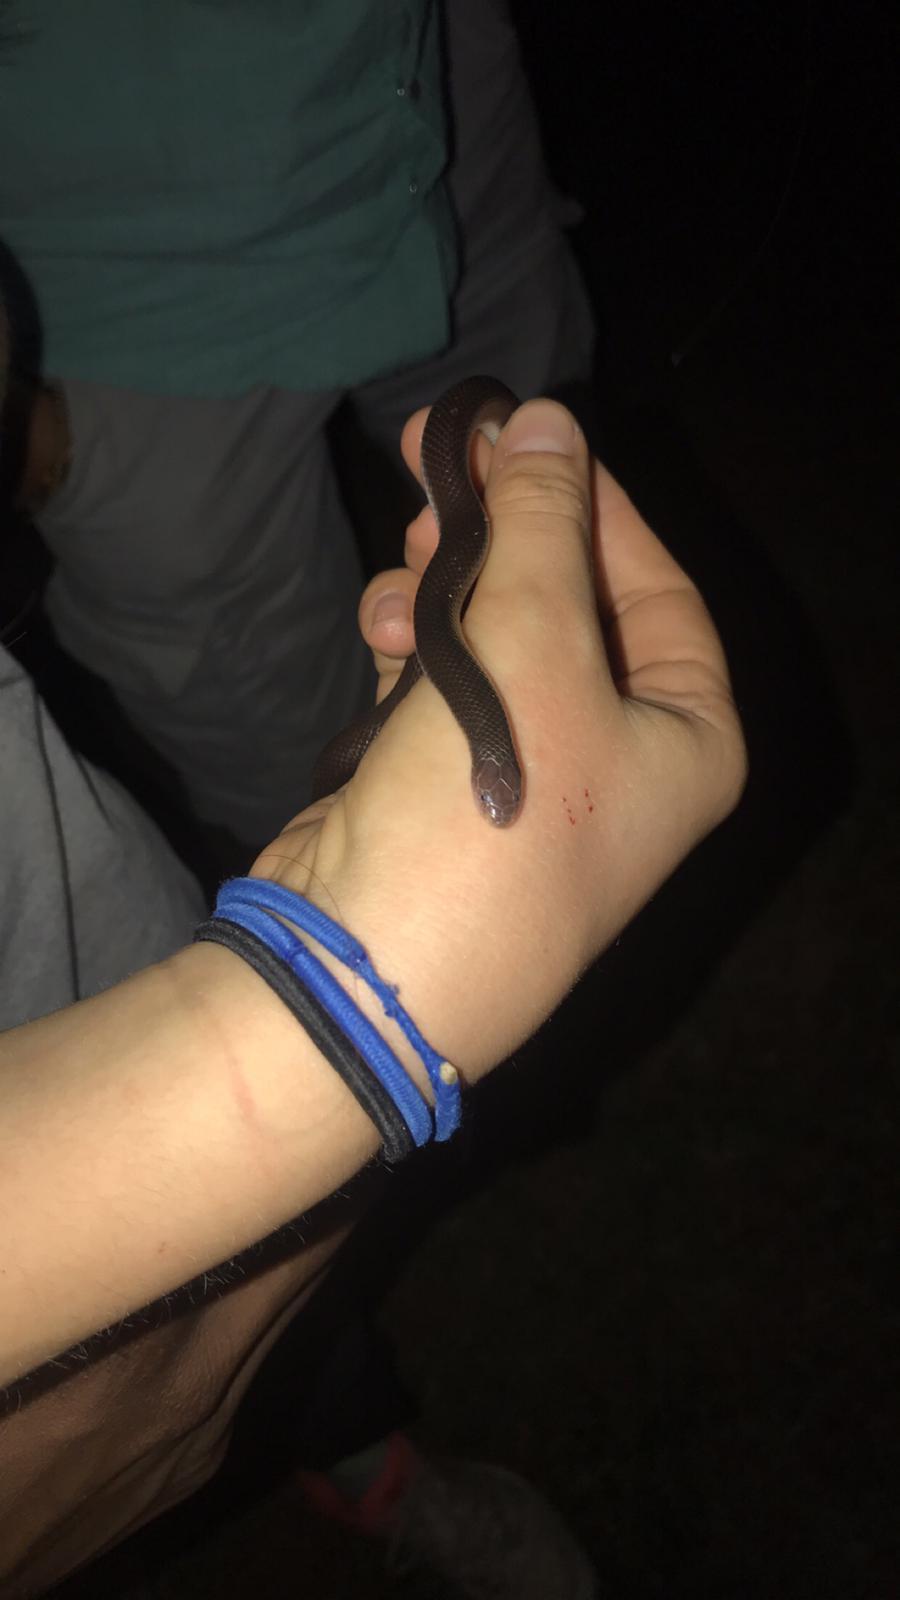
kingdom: Animalia
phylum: Chordata
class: Squamata
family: Atractaspididae
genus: Atractaspis
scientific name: Atractaspis bibronii
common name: Bibron's burrowing asp
